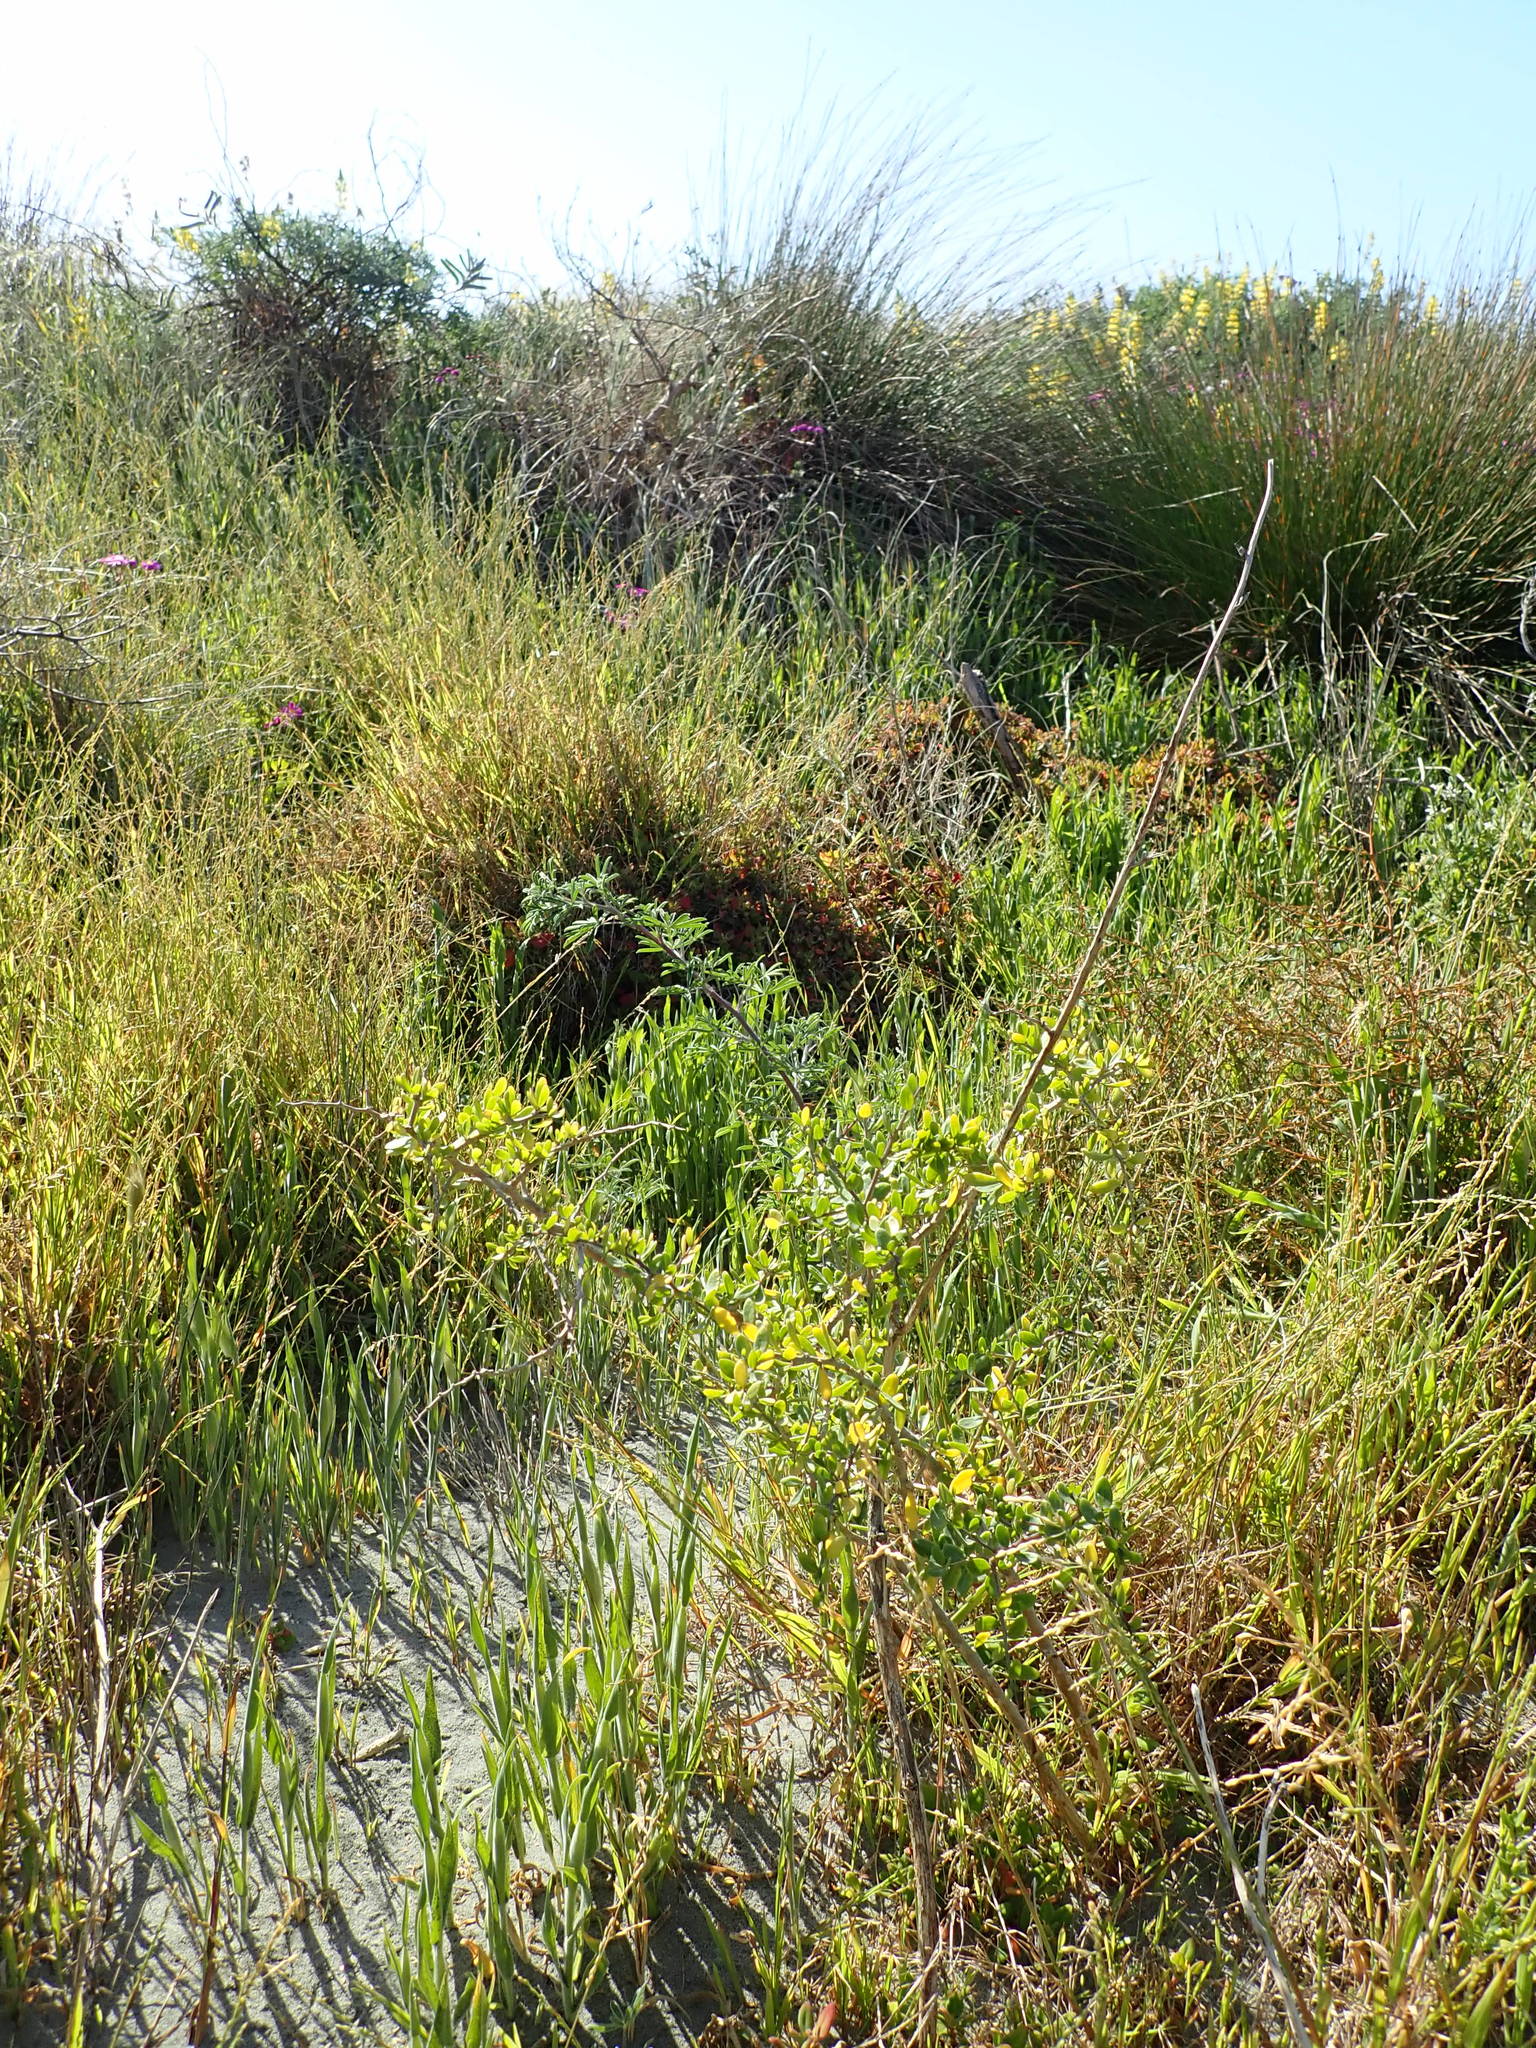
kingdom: Plantae
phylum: Tracheophyta
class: Magnoliopsida
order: Solanales
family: Solanaceae
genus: Lycium
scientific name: Lycium ferocissimum
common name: African boxthorn
